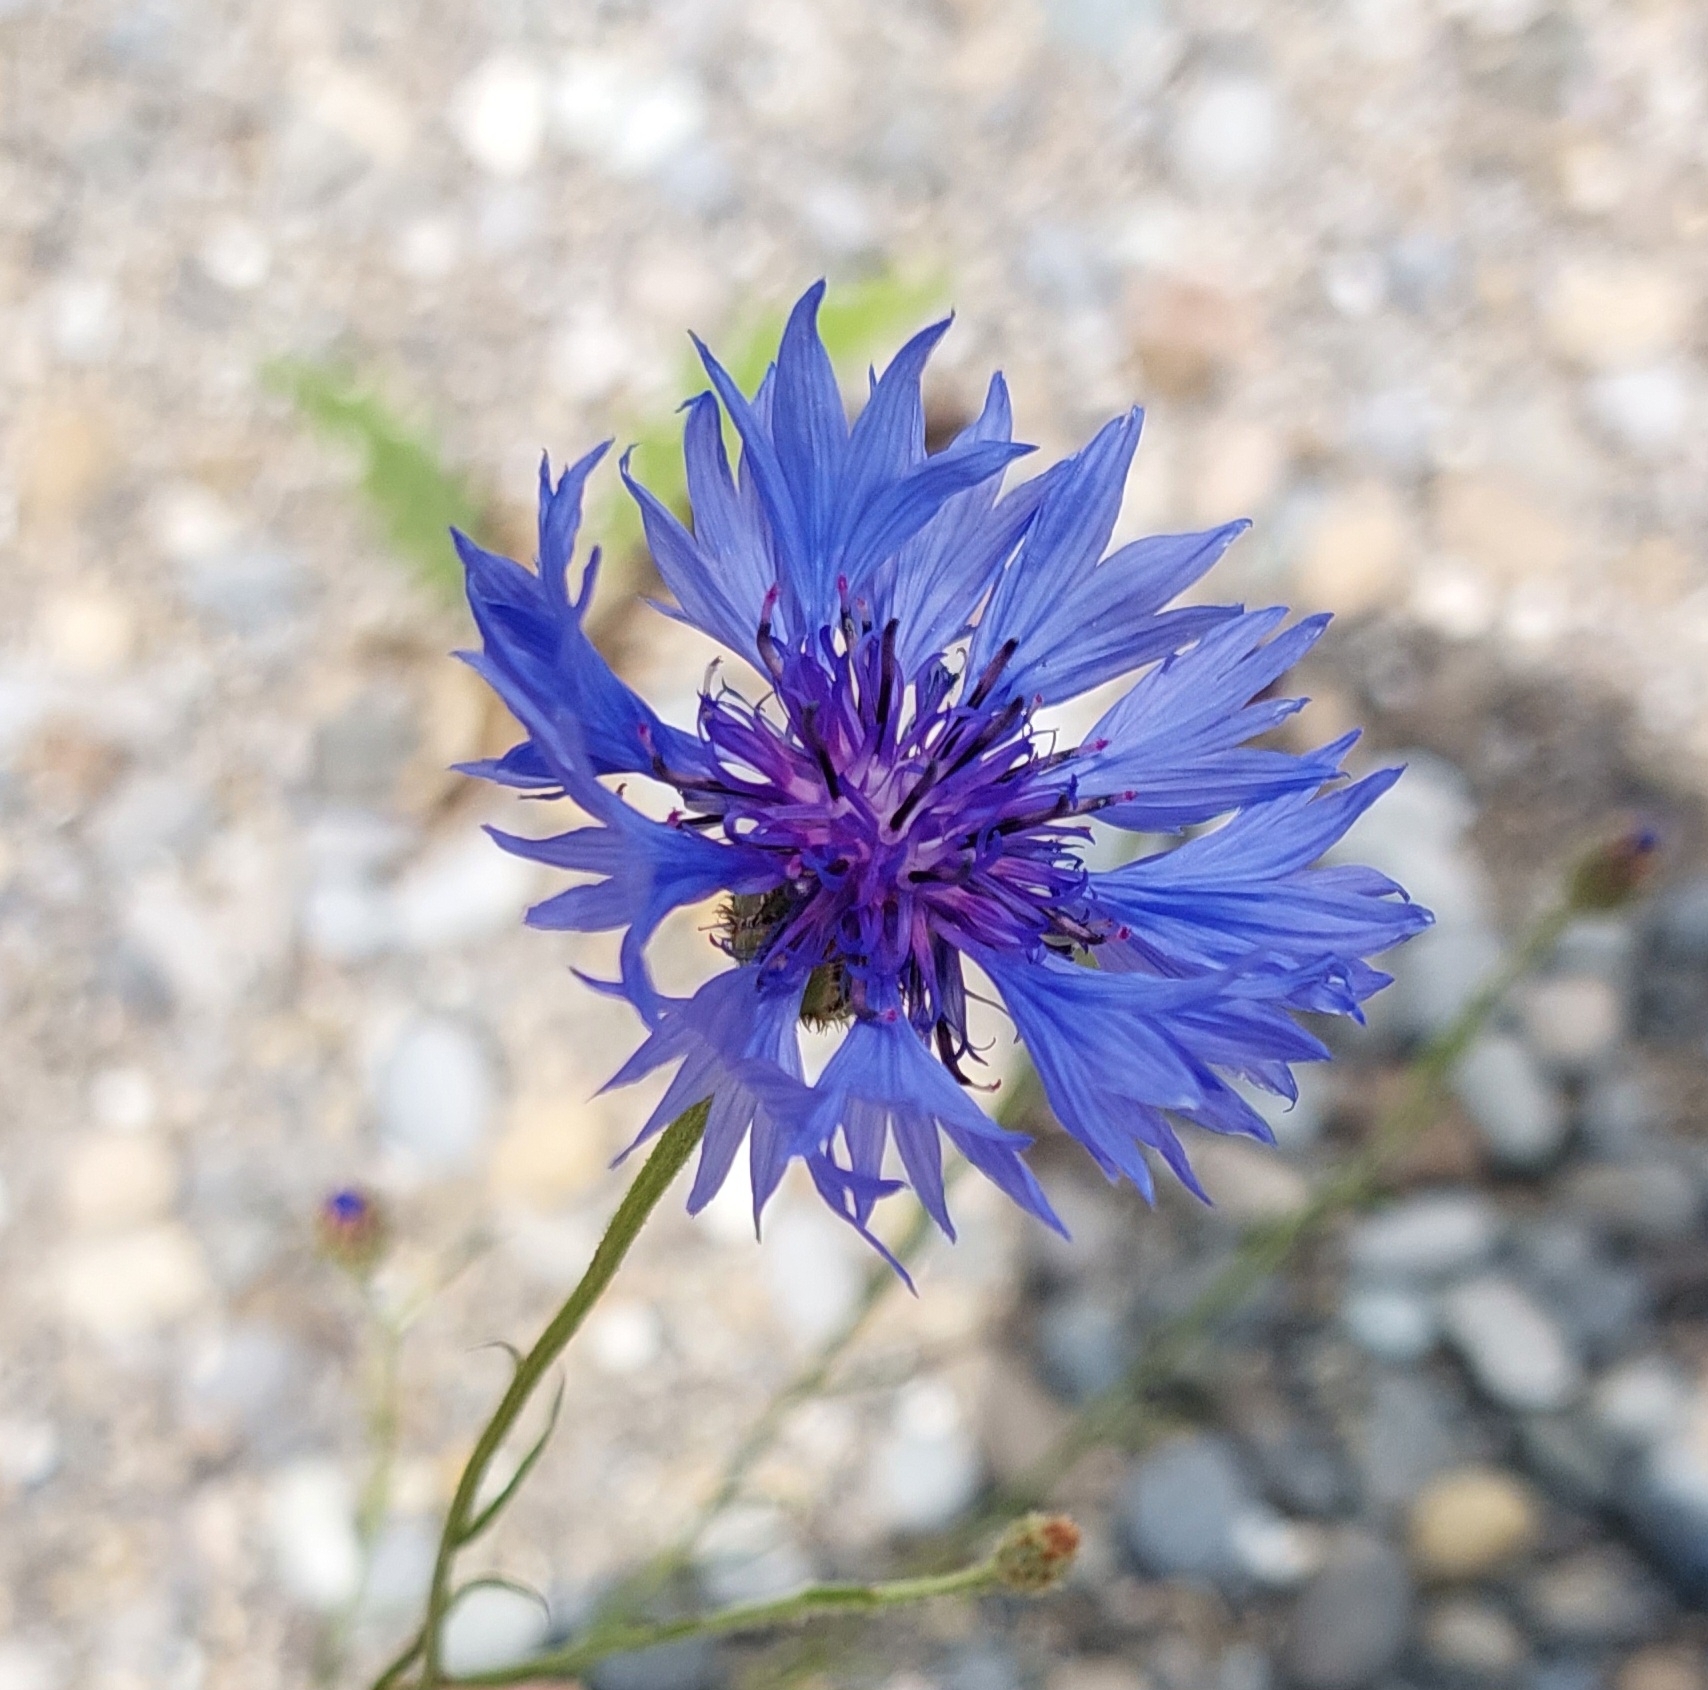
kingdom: Plantae
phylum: Tracheophyta
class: Magnoliopsida
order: Asterales
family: Asteraceae
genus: Centaurea
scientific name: Centaurea cyanus
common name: Cornflower
